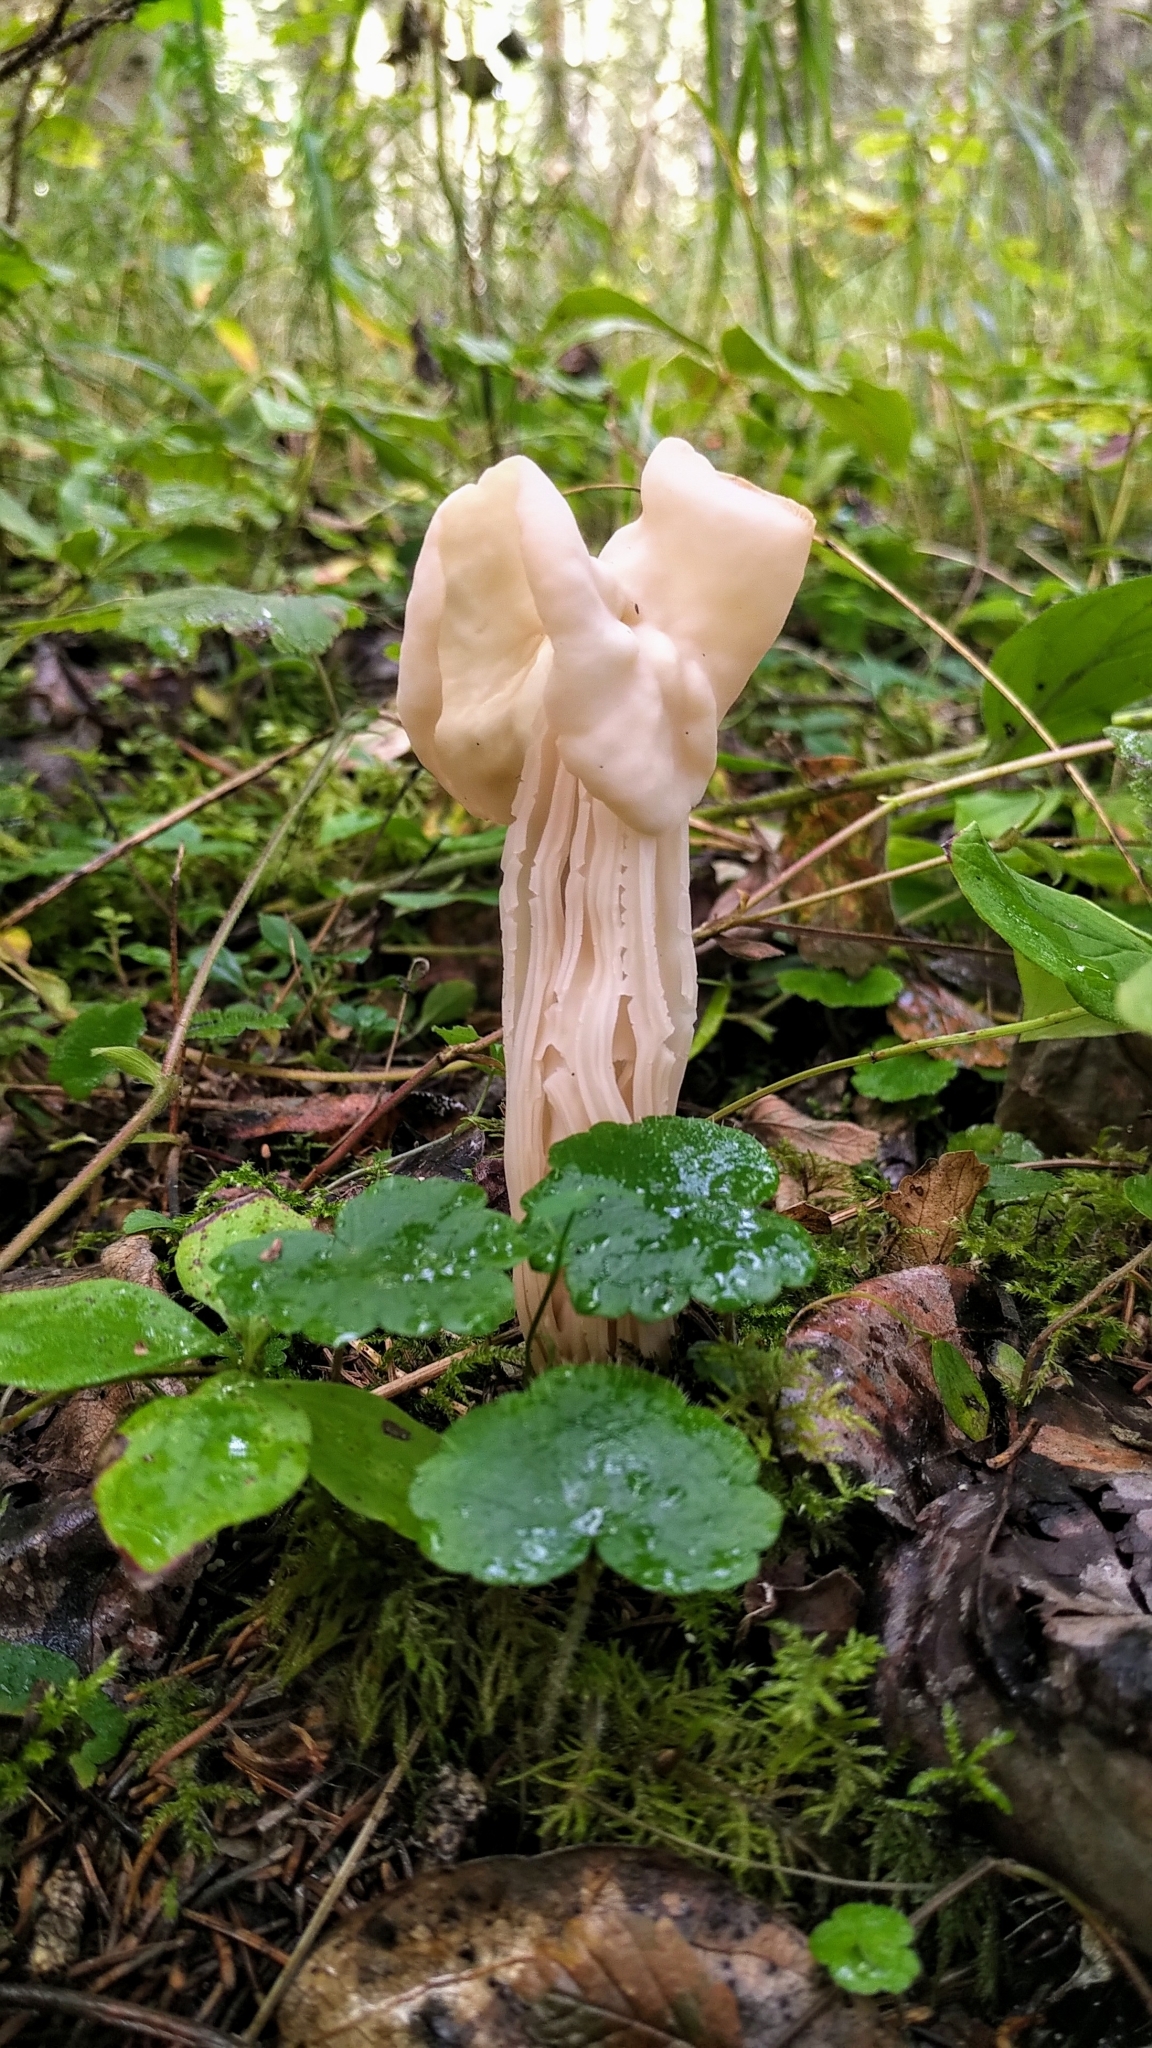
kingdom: Fungi
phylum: Ascomycota
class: Pezizomycetes
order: Pezizales
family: Helvellaceae
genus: Helvella
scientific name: Helvella crispa
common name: White saddle
